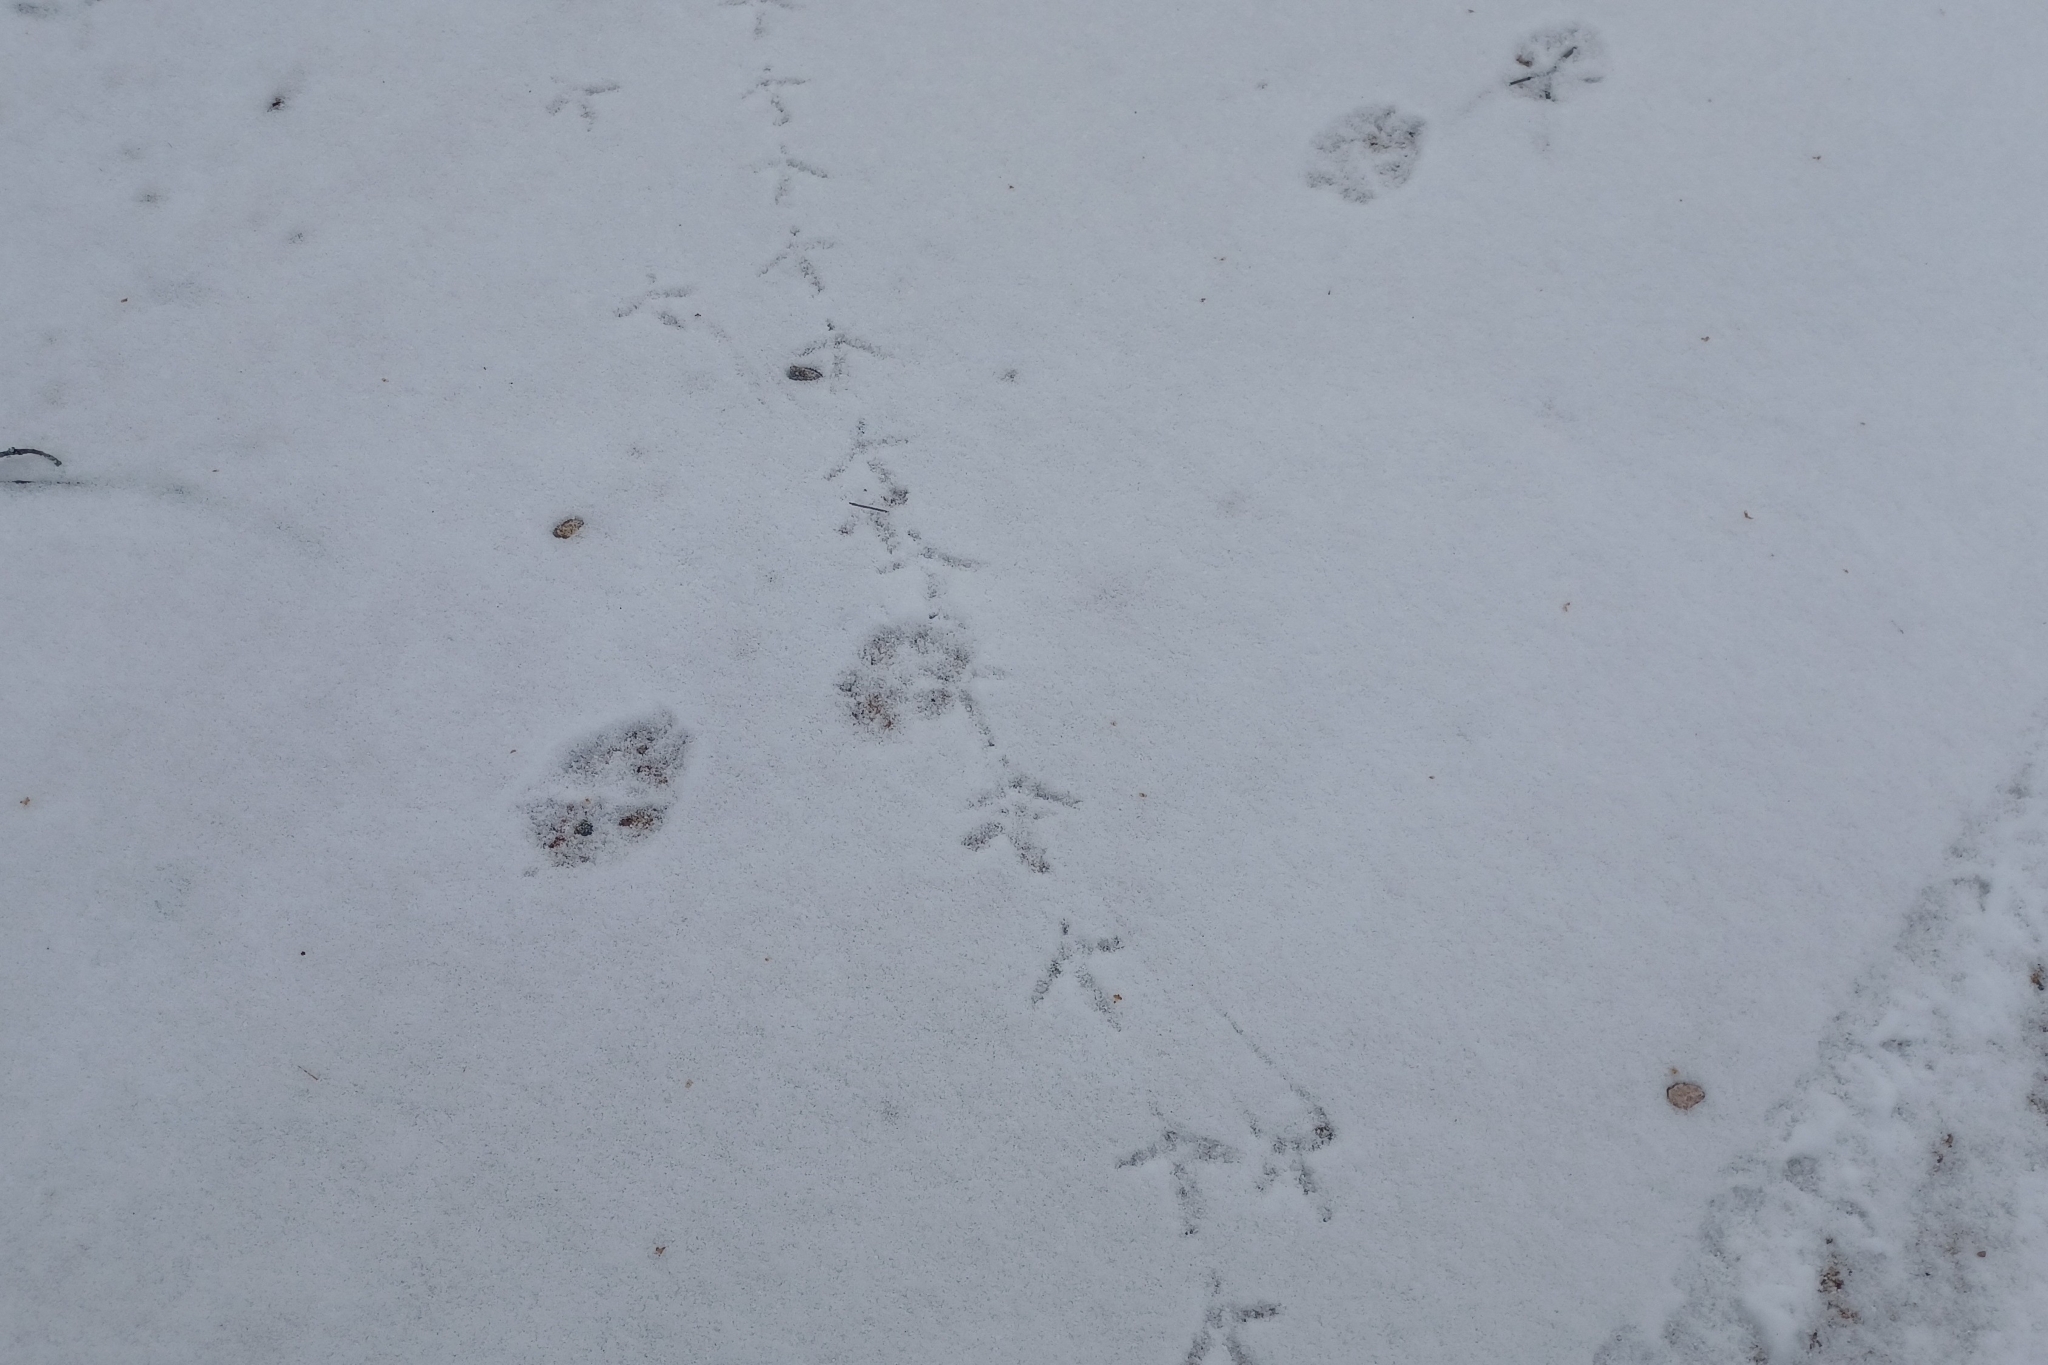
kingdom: Animalia
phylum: Chordata
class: Aves
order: Galliformes
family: Phasianidae
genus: Bonasa
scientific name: Bonasa umbellus
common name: Ruffed grouse
